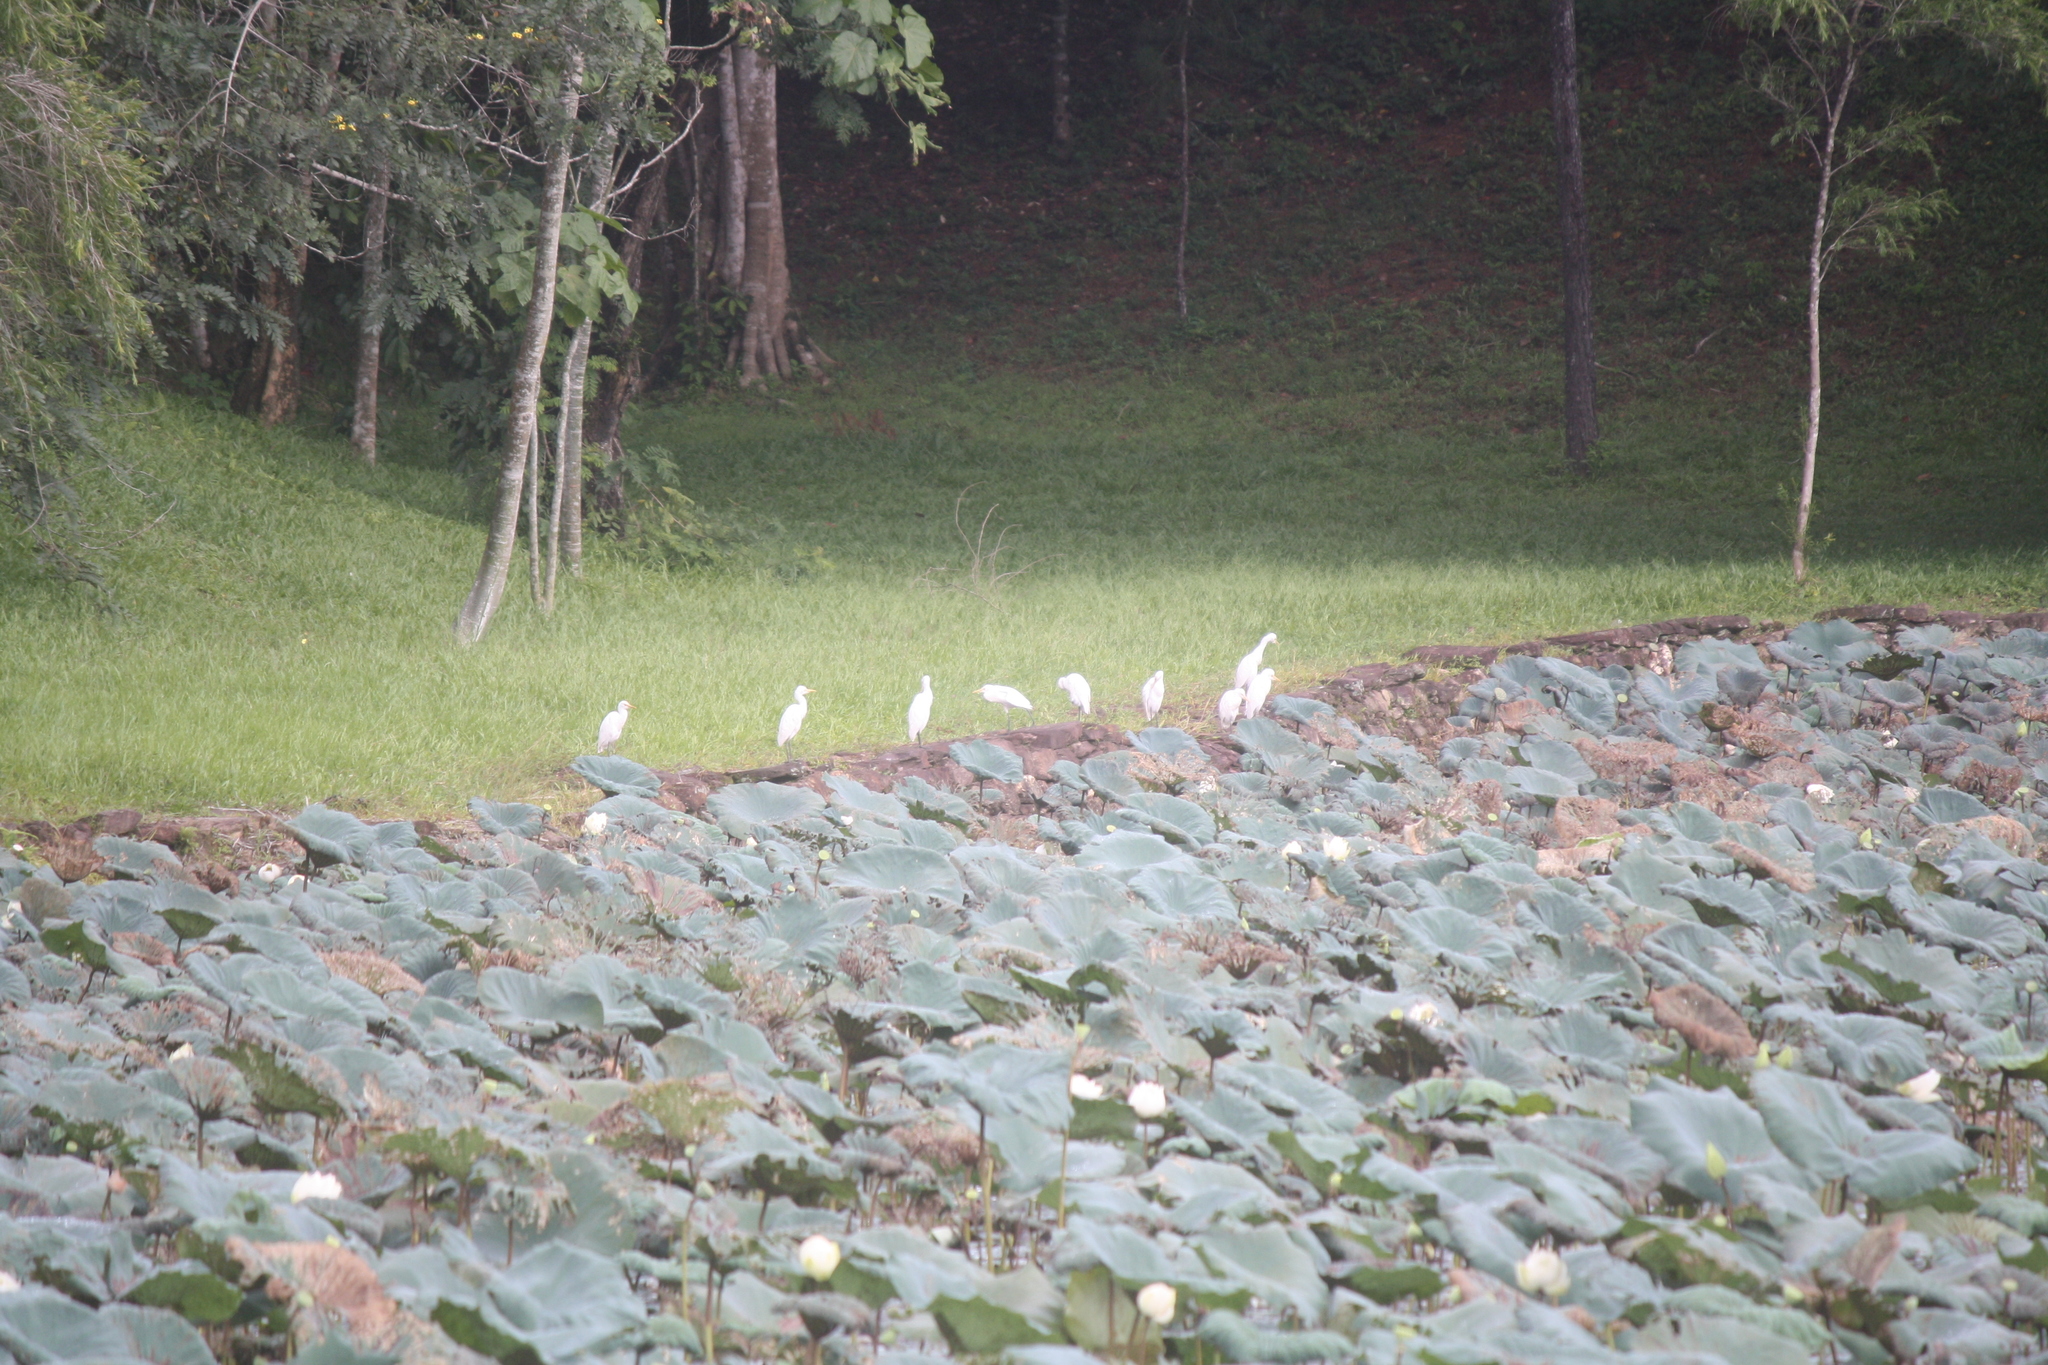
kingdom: Animalia
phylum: Chordata
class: Aves
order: Pelecaniformes
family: Ardeidae
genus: Bubulcus
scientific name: Bubulcus coromandus
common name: Eastern cattle egret
